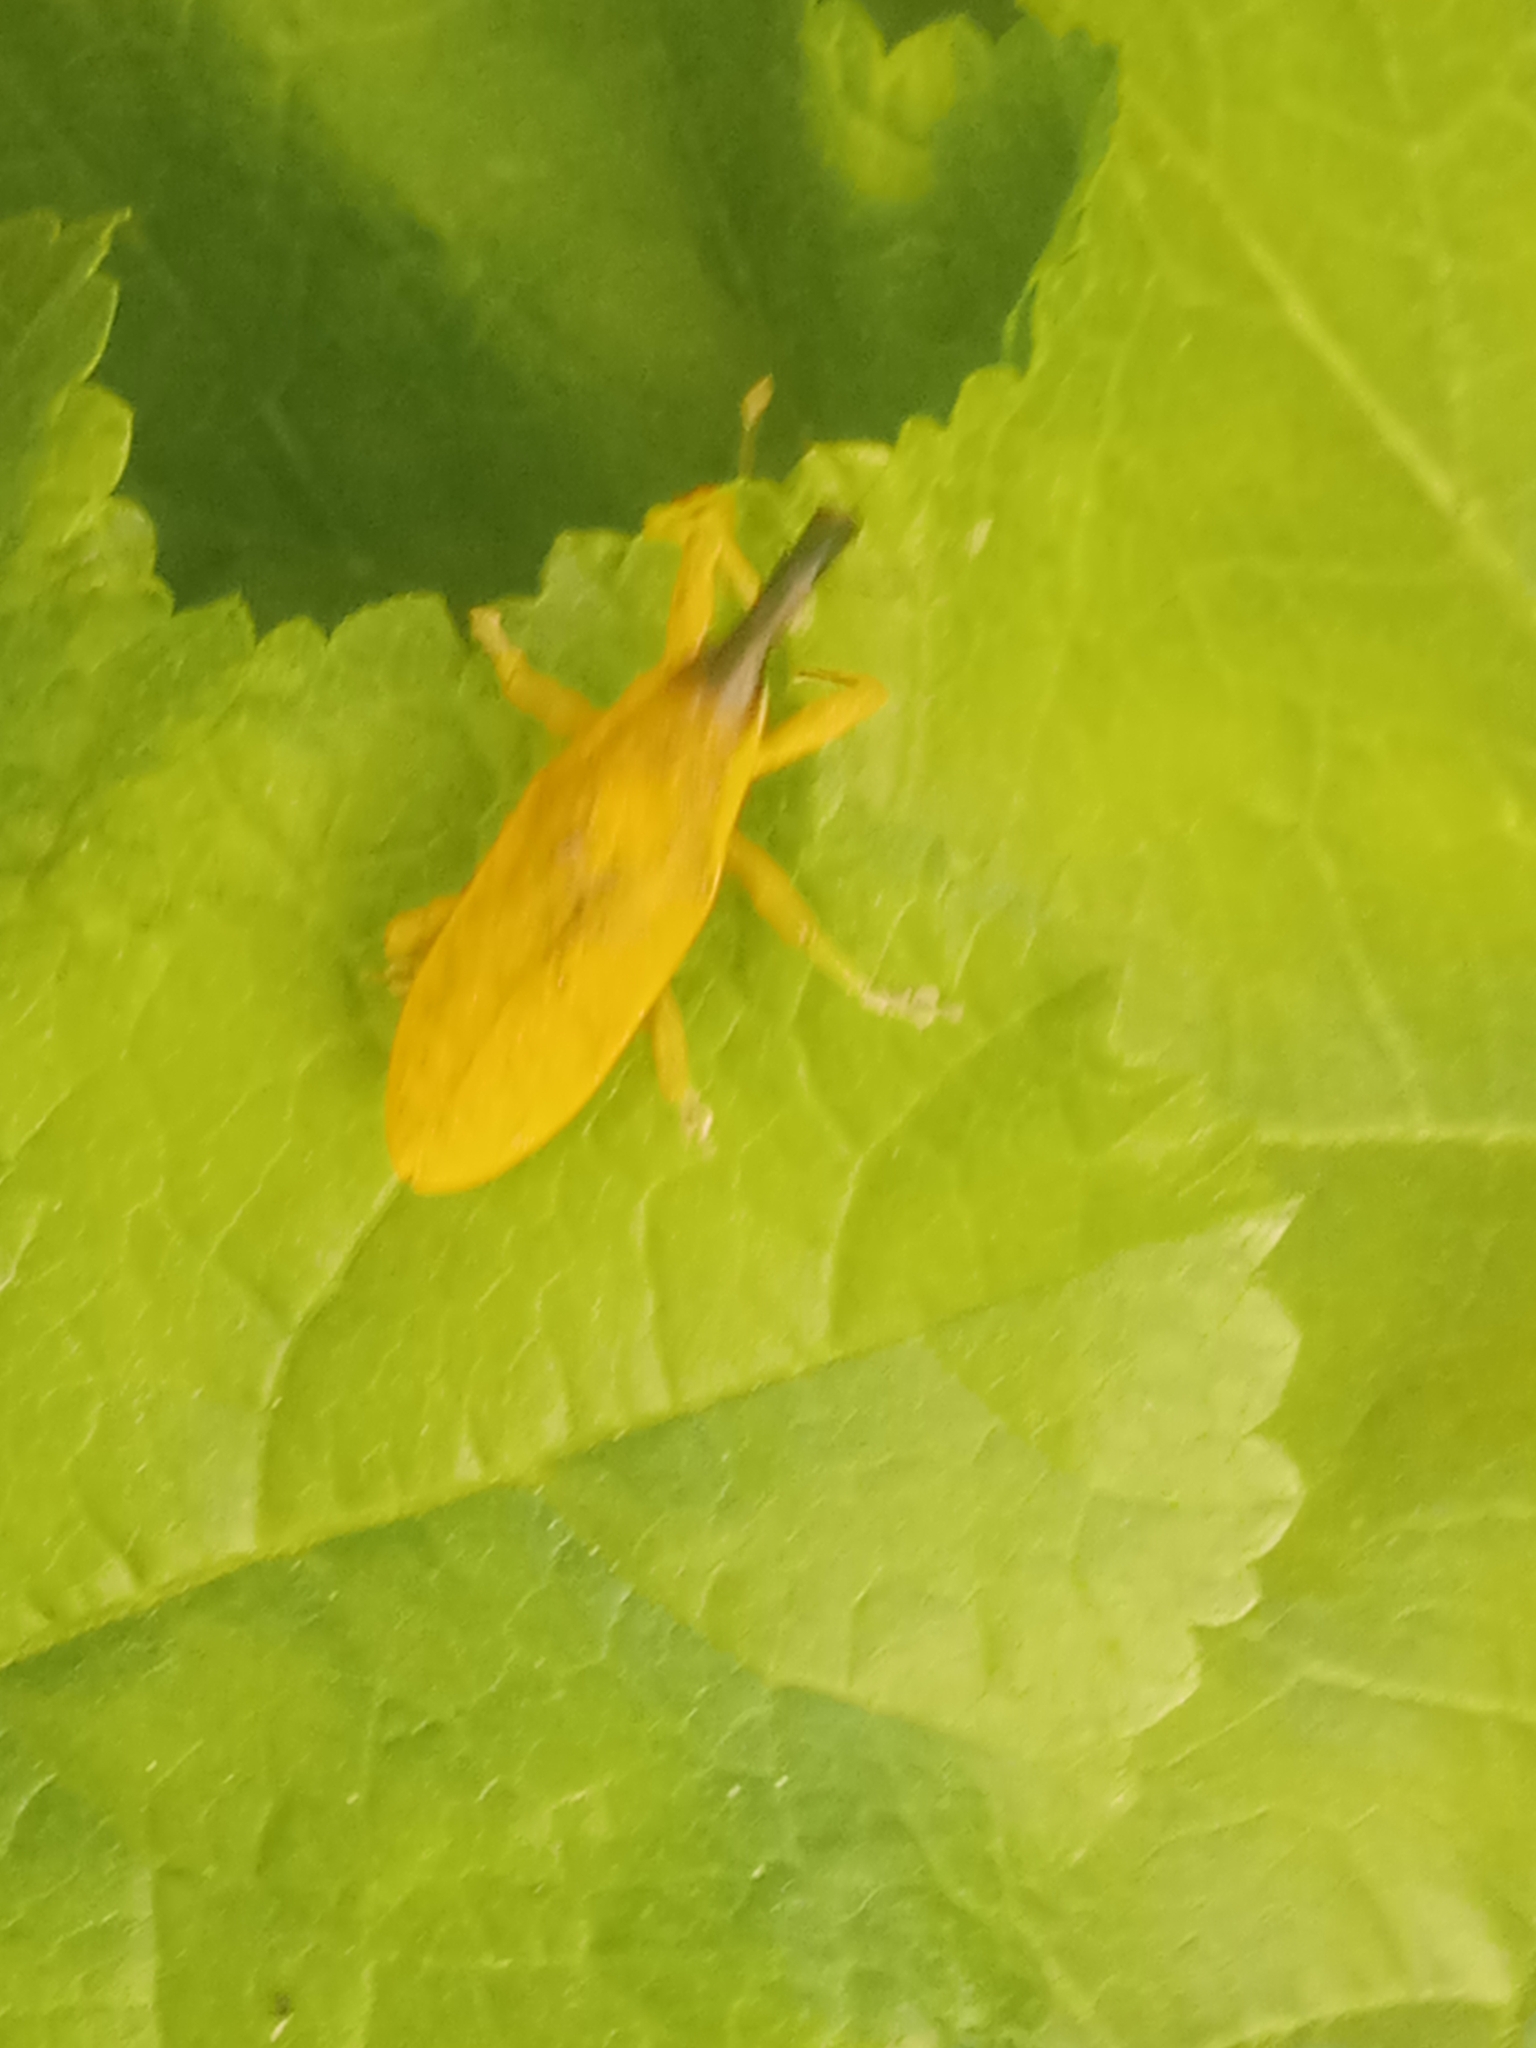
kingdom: Animalia
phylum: Arthropoda
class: Insecta
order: Coleoptera
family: Curculionidae
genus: Lixus
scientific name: Lixus pulverulentus
